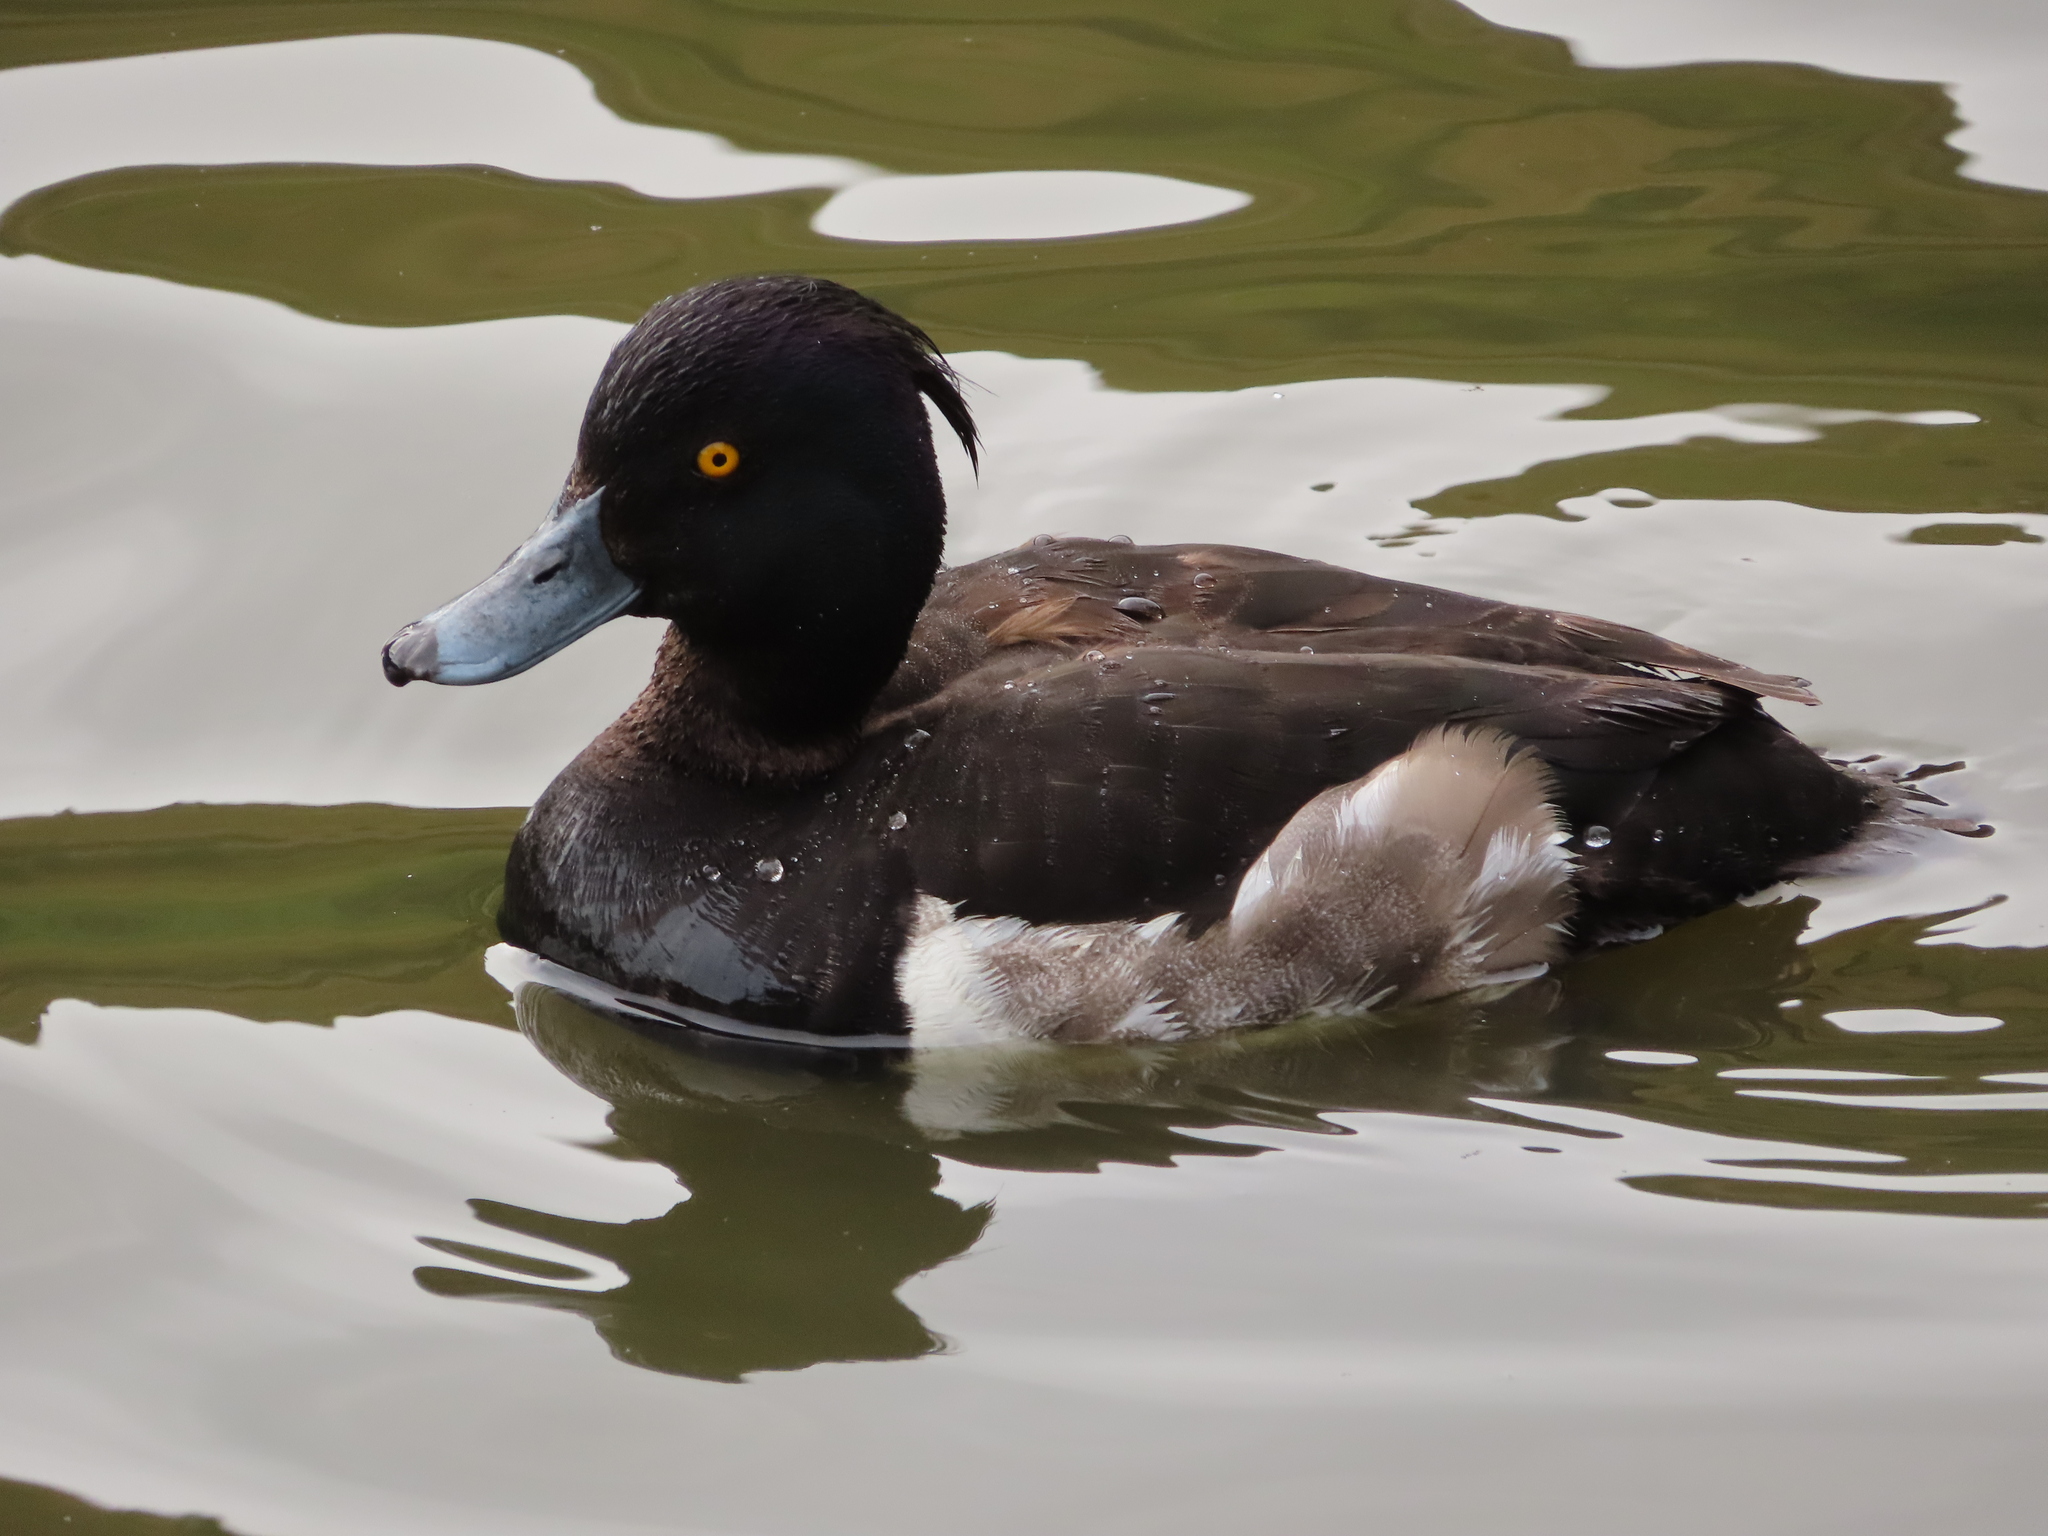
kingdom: Animalia
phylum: Chordata
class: Aves
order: Anseriformes
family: Anatidae
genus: Aythya
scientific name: Aythya fuligula
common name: Tufted duck
